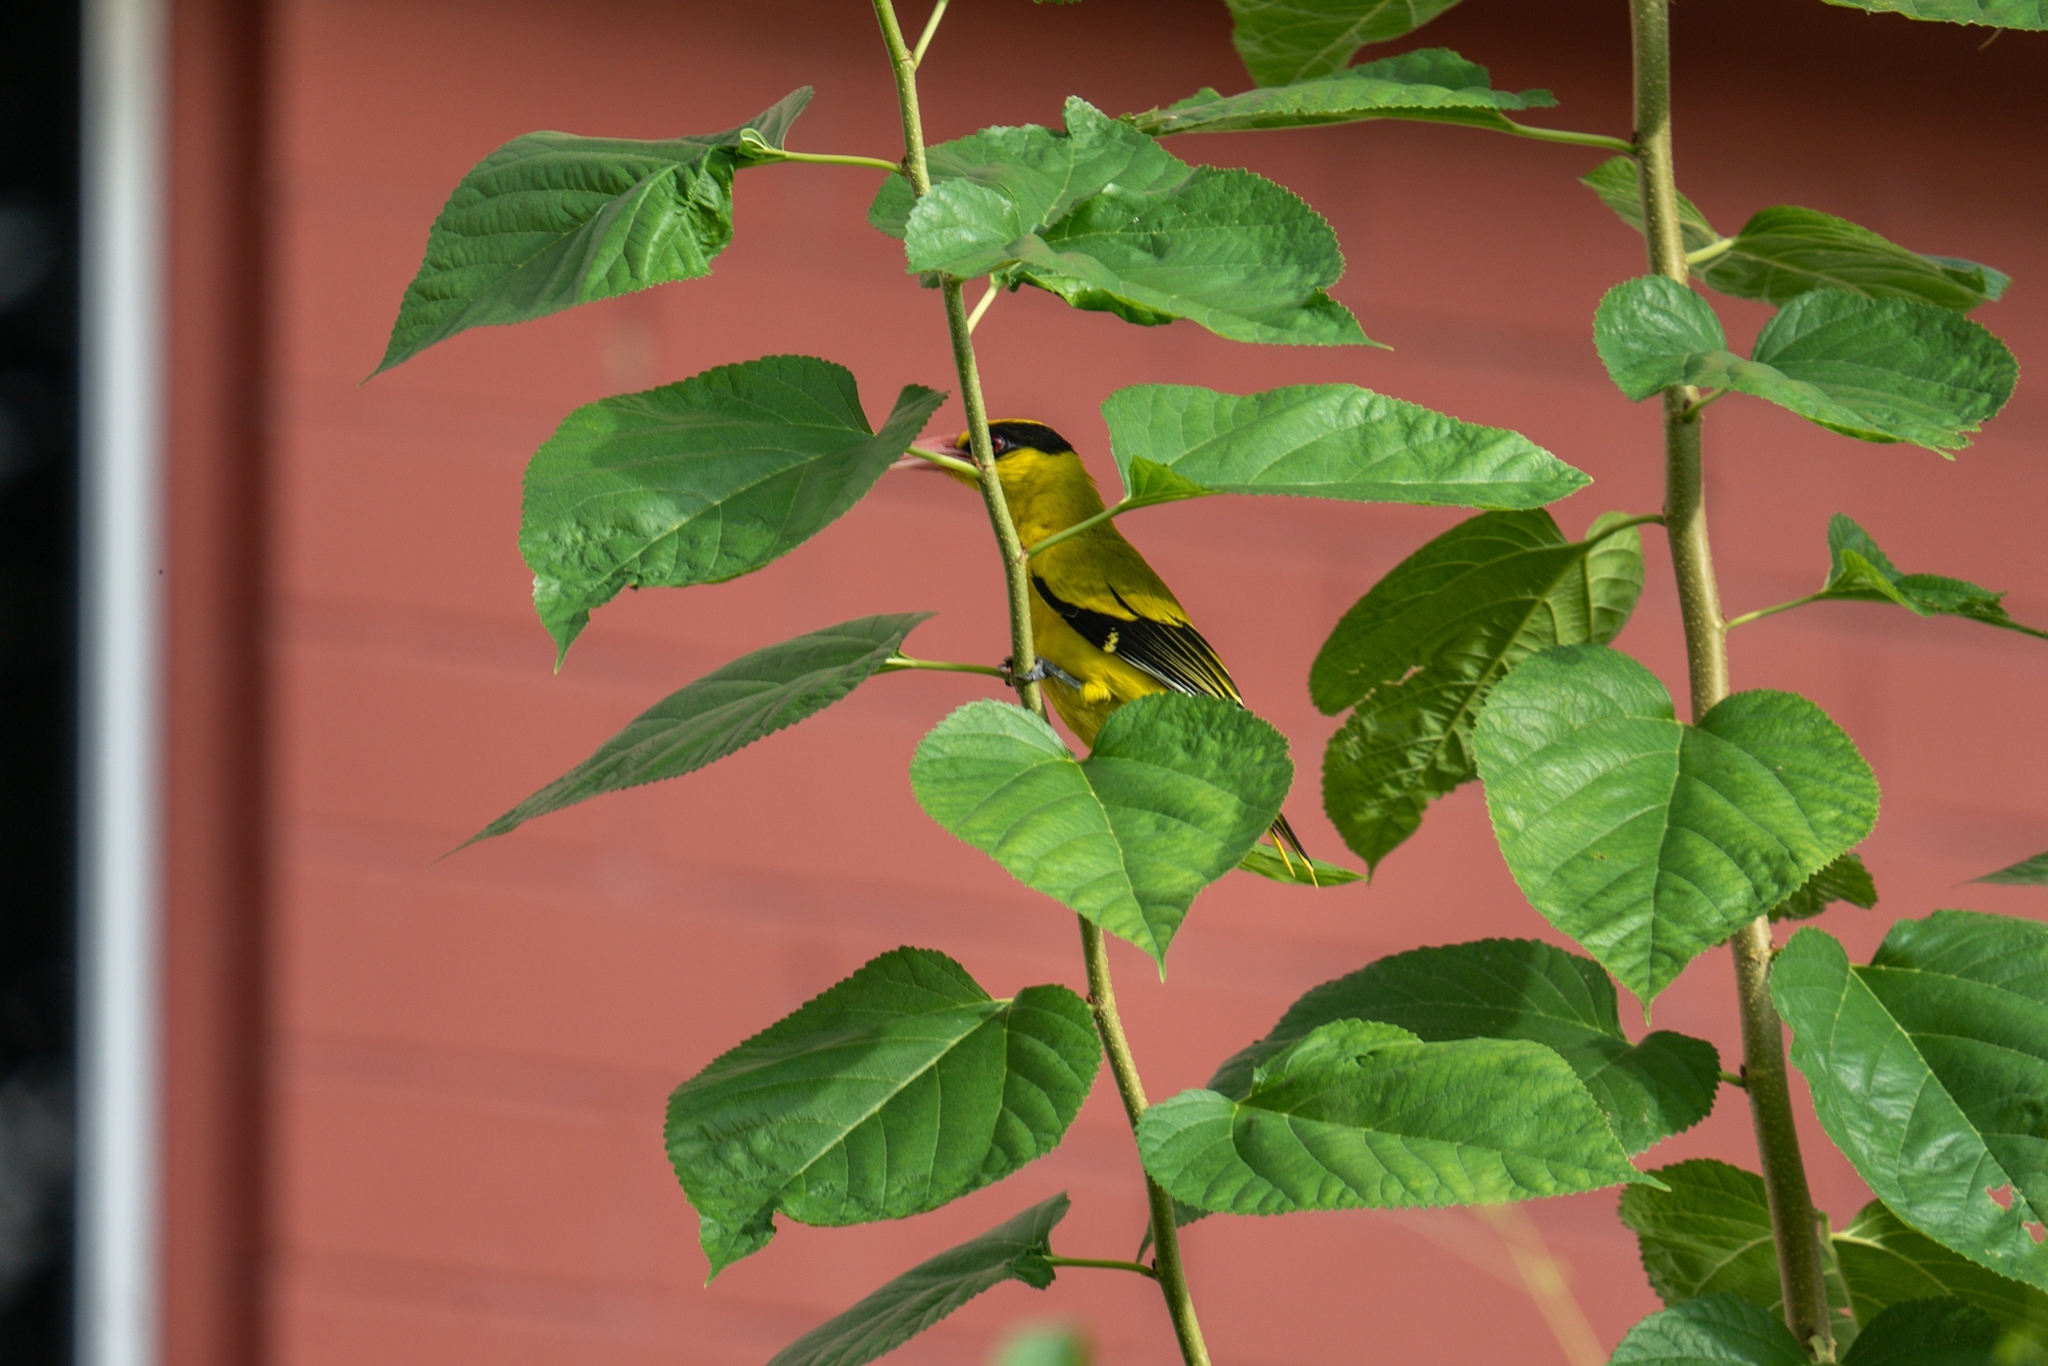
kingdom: Animalia
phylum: Chordata
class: Aves
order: Passeriformes
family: Oriolidae
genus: Oriolus
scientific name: Oriolus chinensis
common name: Black-naped oriole
